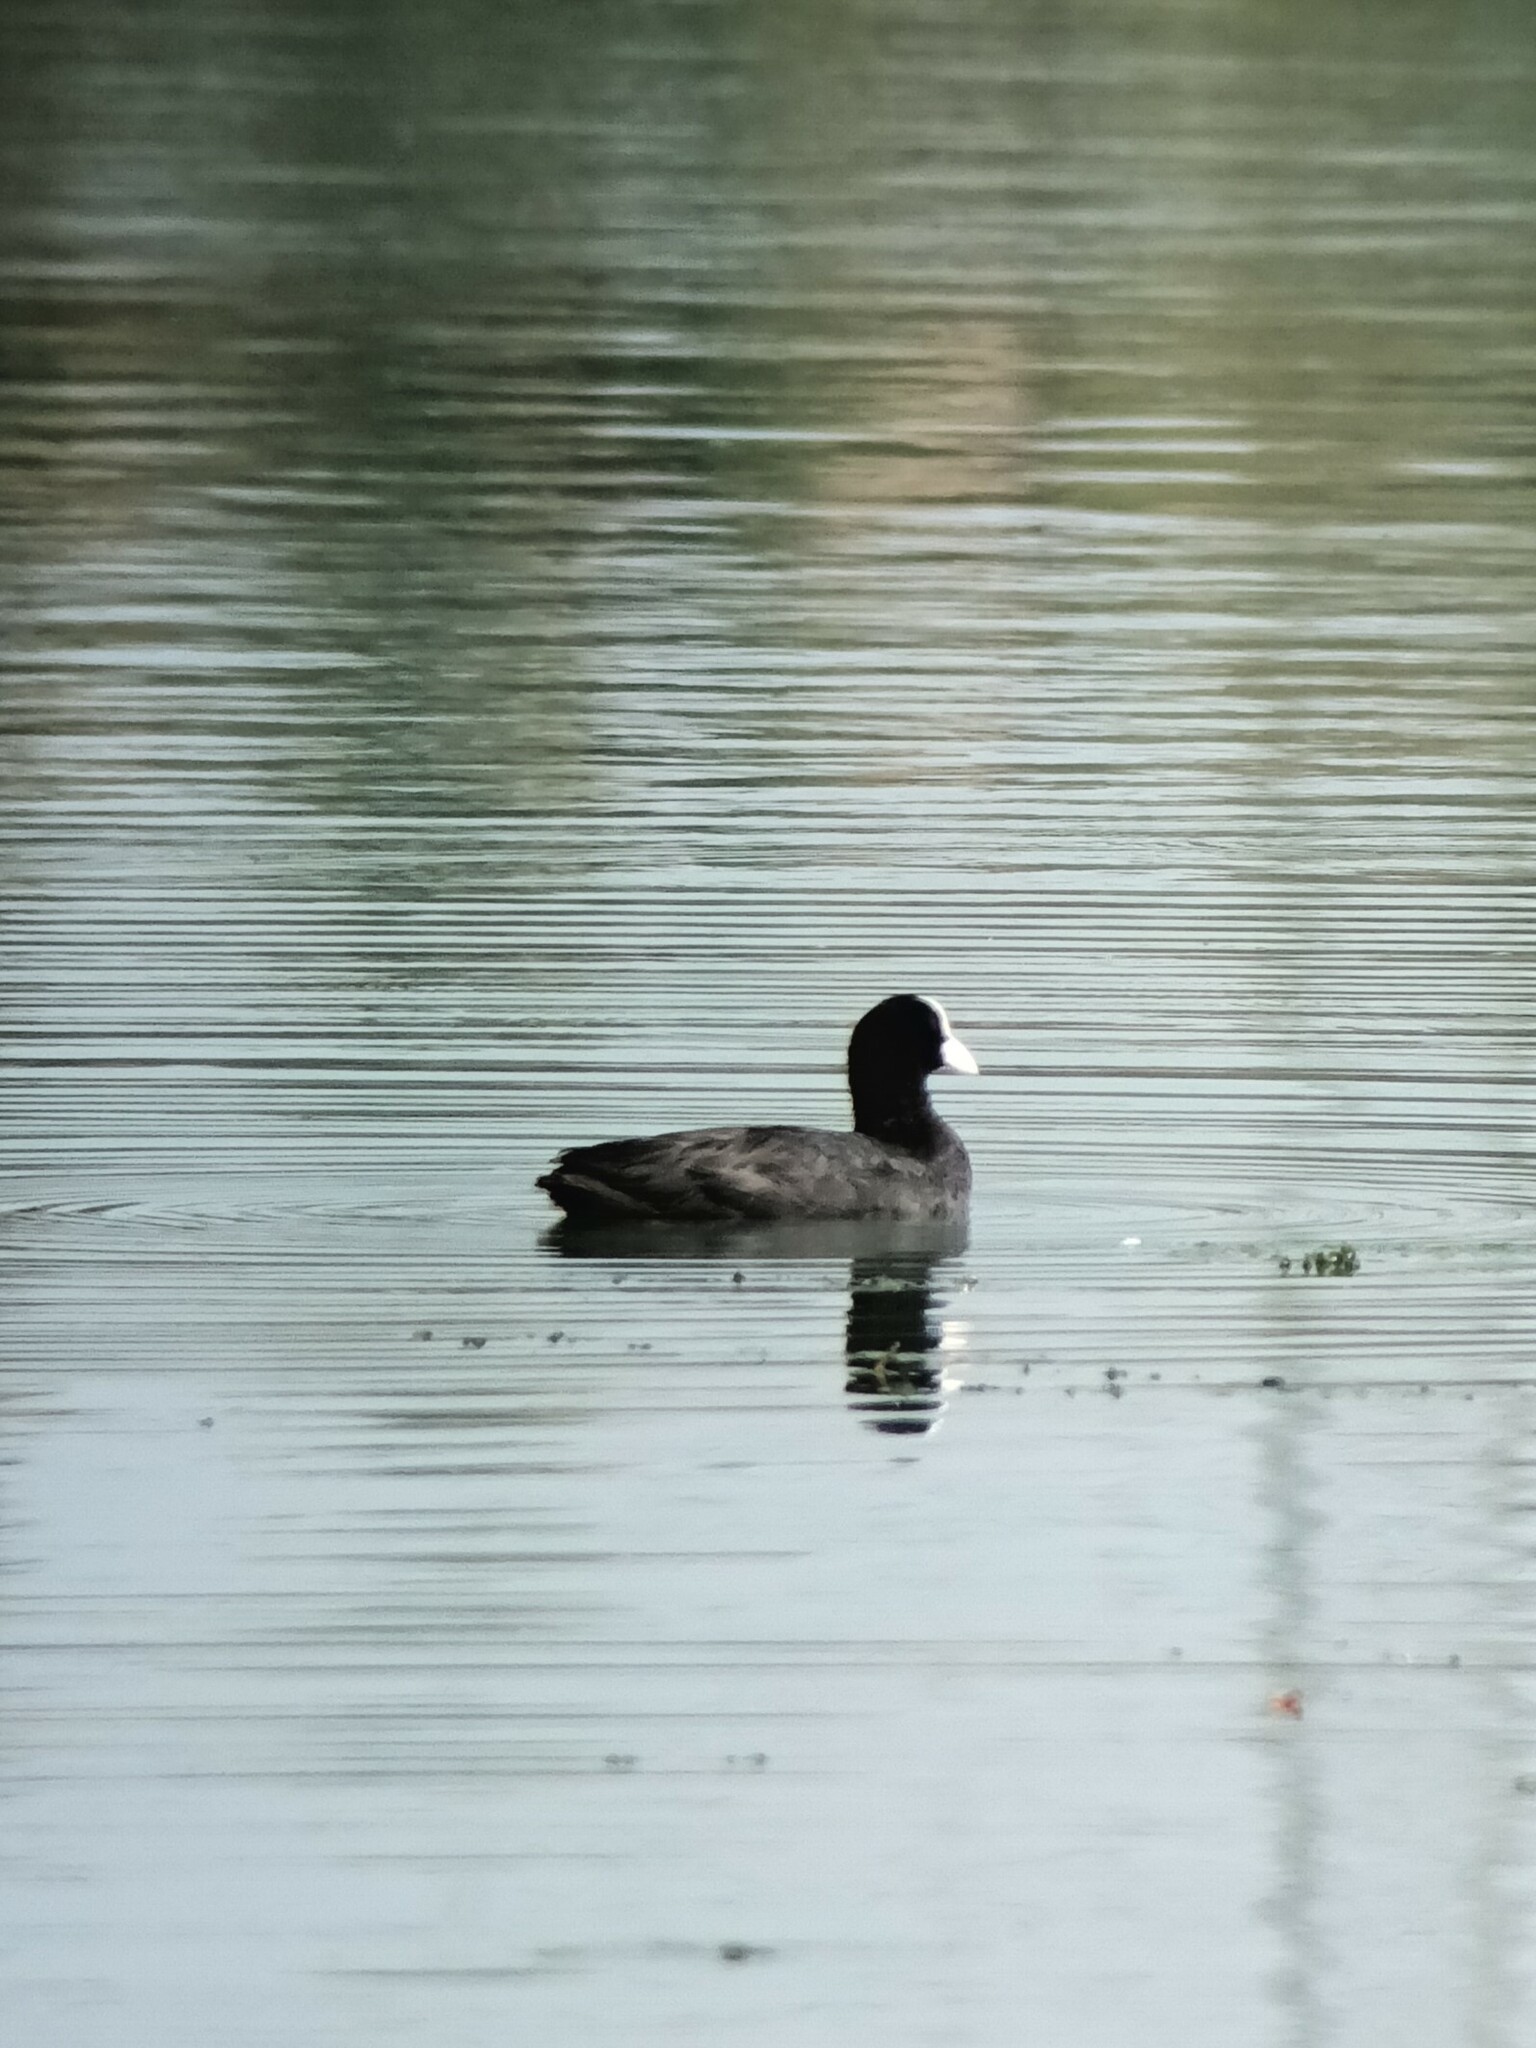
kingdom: Animalia
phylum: Chordata
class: Aves
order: Gruiformes
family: Rallidae
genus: Fulica
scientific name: Fulica atra
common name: Eurasian coot
